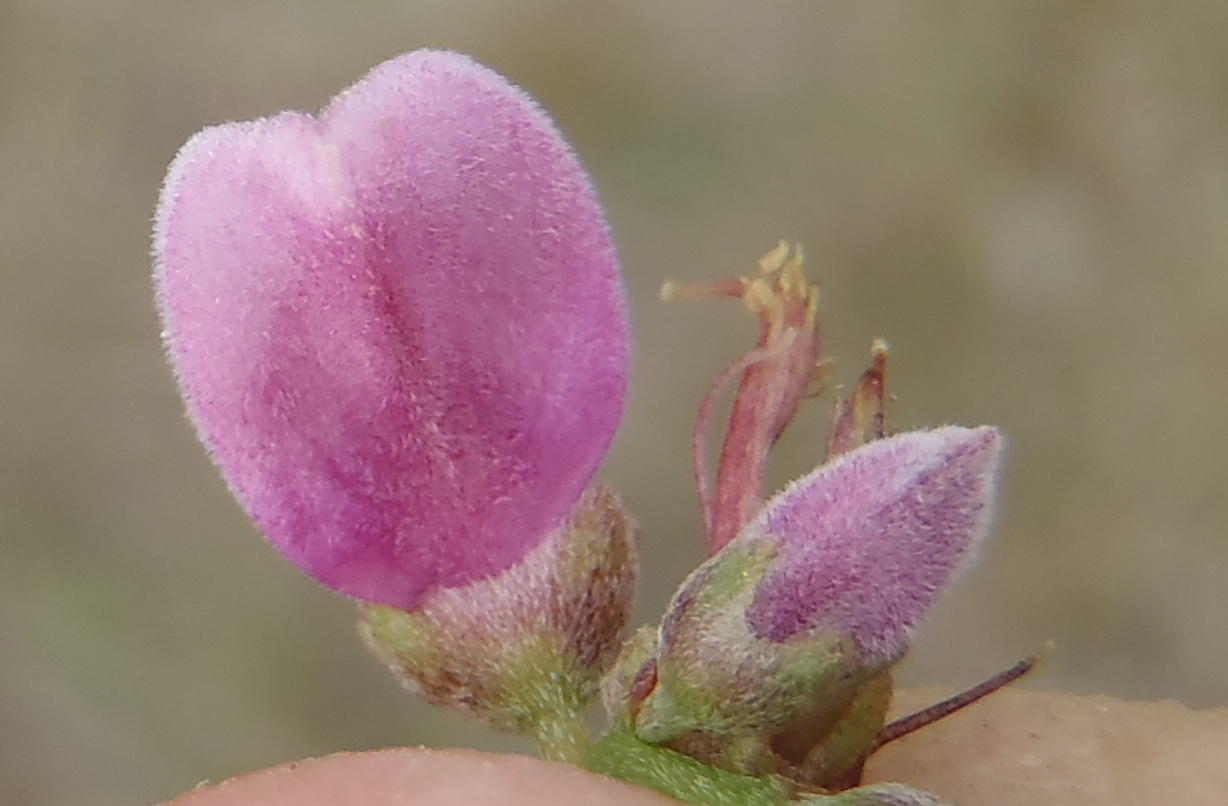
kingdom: Plantae
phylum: Tracheophyta
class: Magnoliopsida
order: Fabales
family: Fabaceae
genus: Indigofera
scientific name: Indigofera denudata
